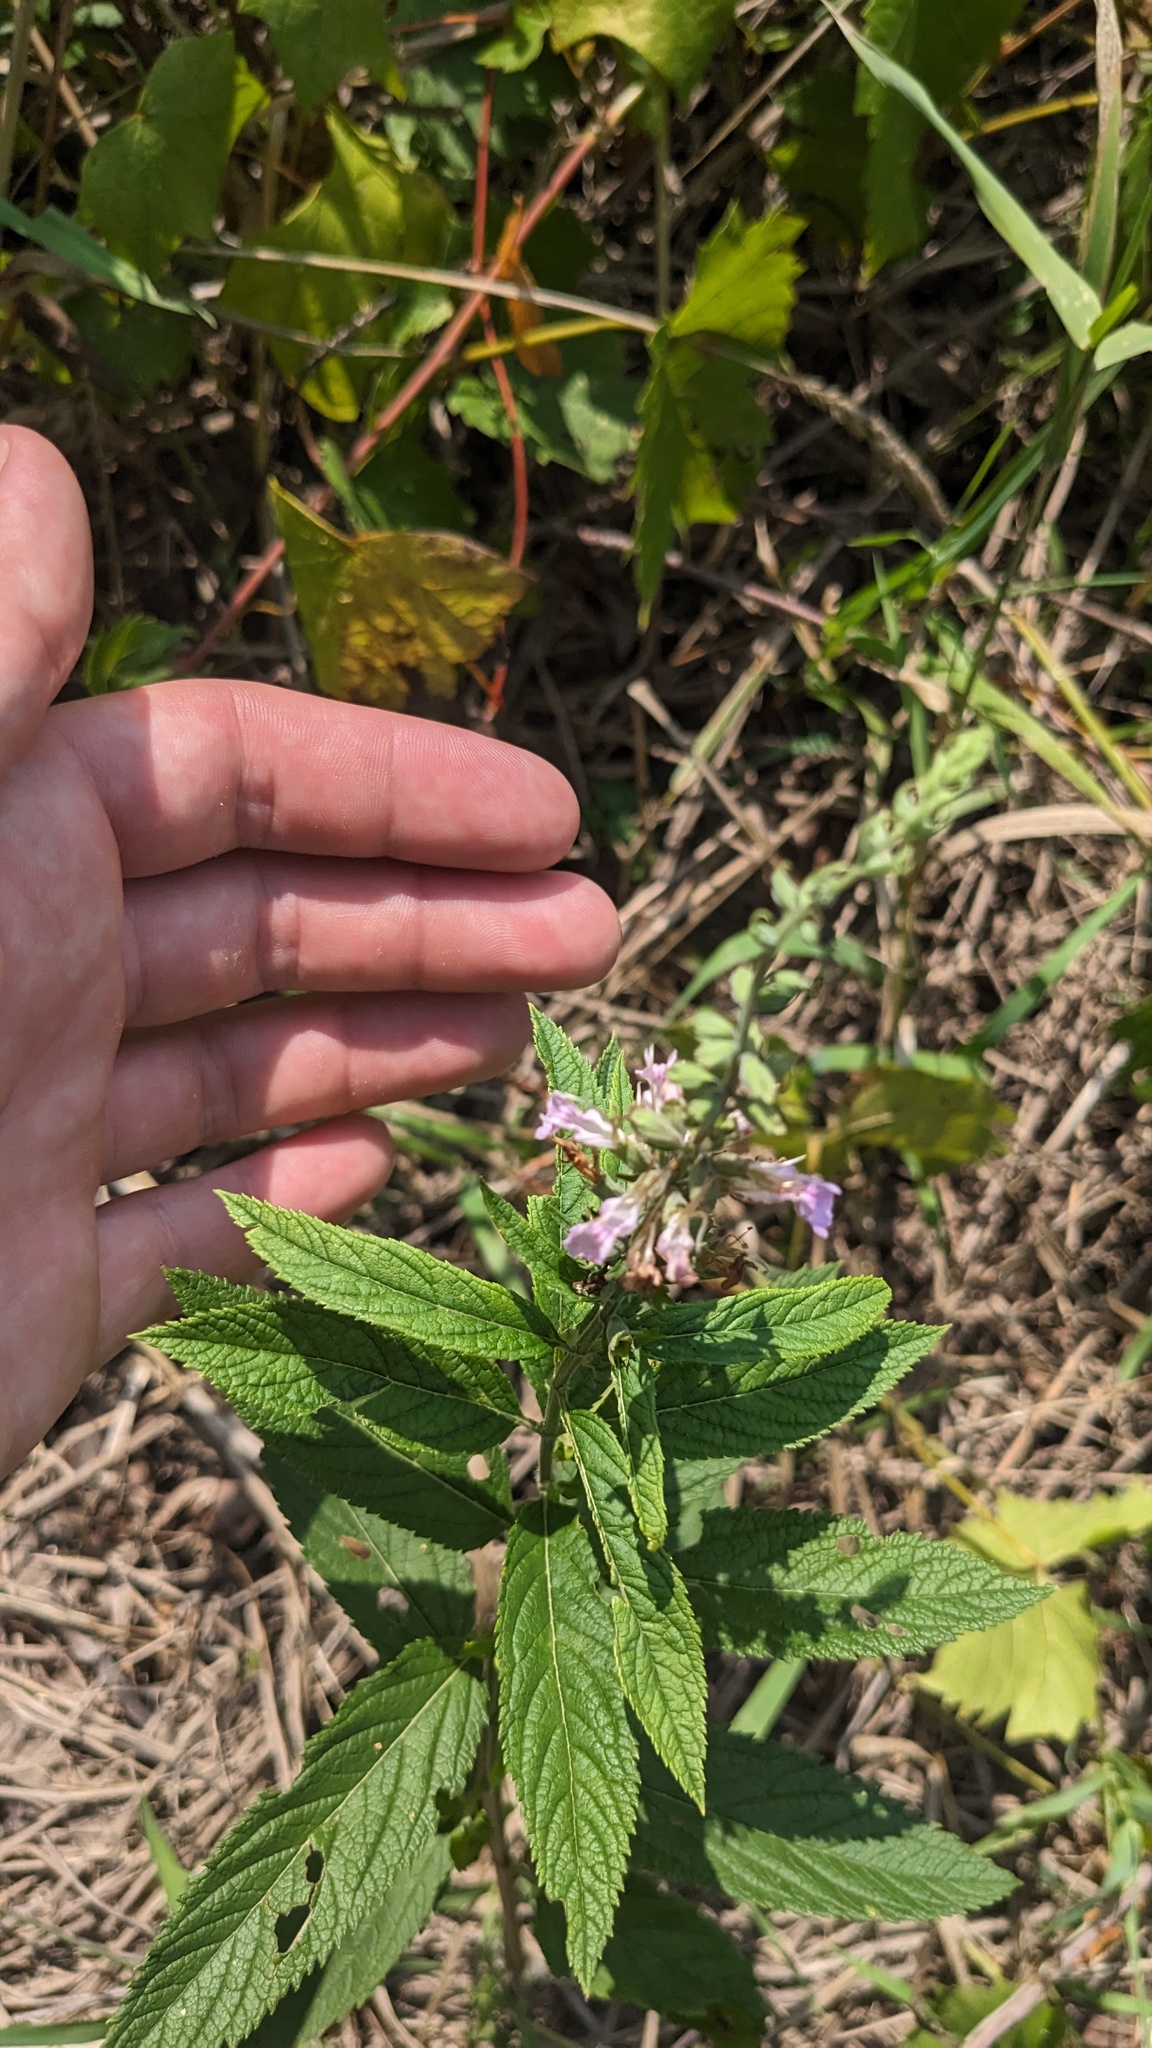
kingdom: Plantae
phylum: Tracheophyta
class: Magnoliopsida
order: Lamiales
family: Lamiaceae
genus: Teucrium
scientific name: Teucrium canadense
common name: American germander
